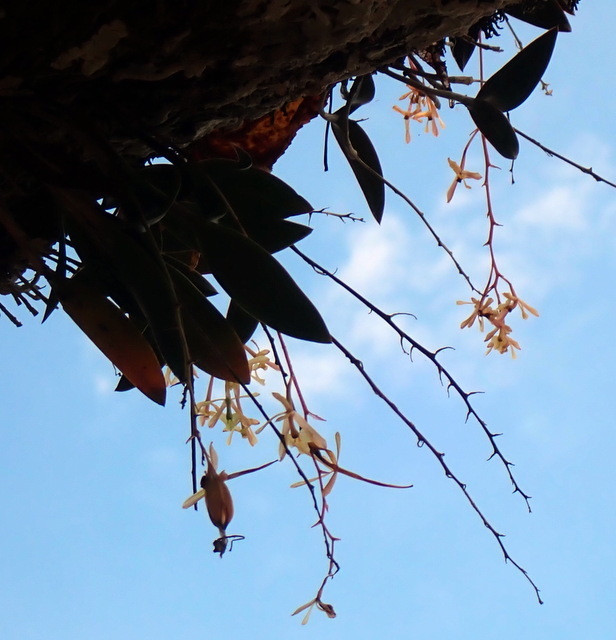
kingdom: Plantae
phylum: Tracheophyta
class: Liliopsida
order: Asparagales
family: Orchidaceae
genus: Epidendrum
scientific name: Epidendrum conopseum
